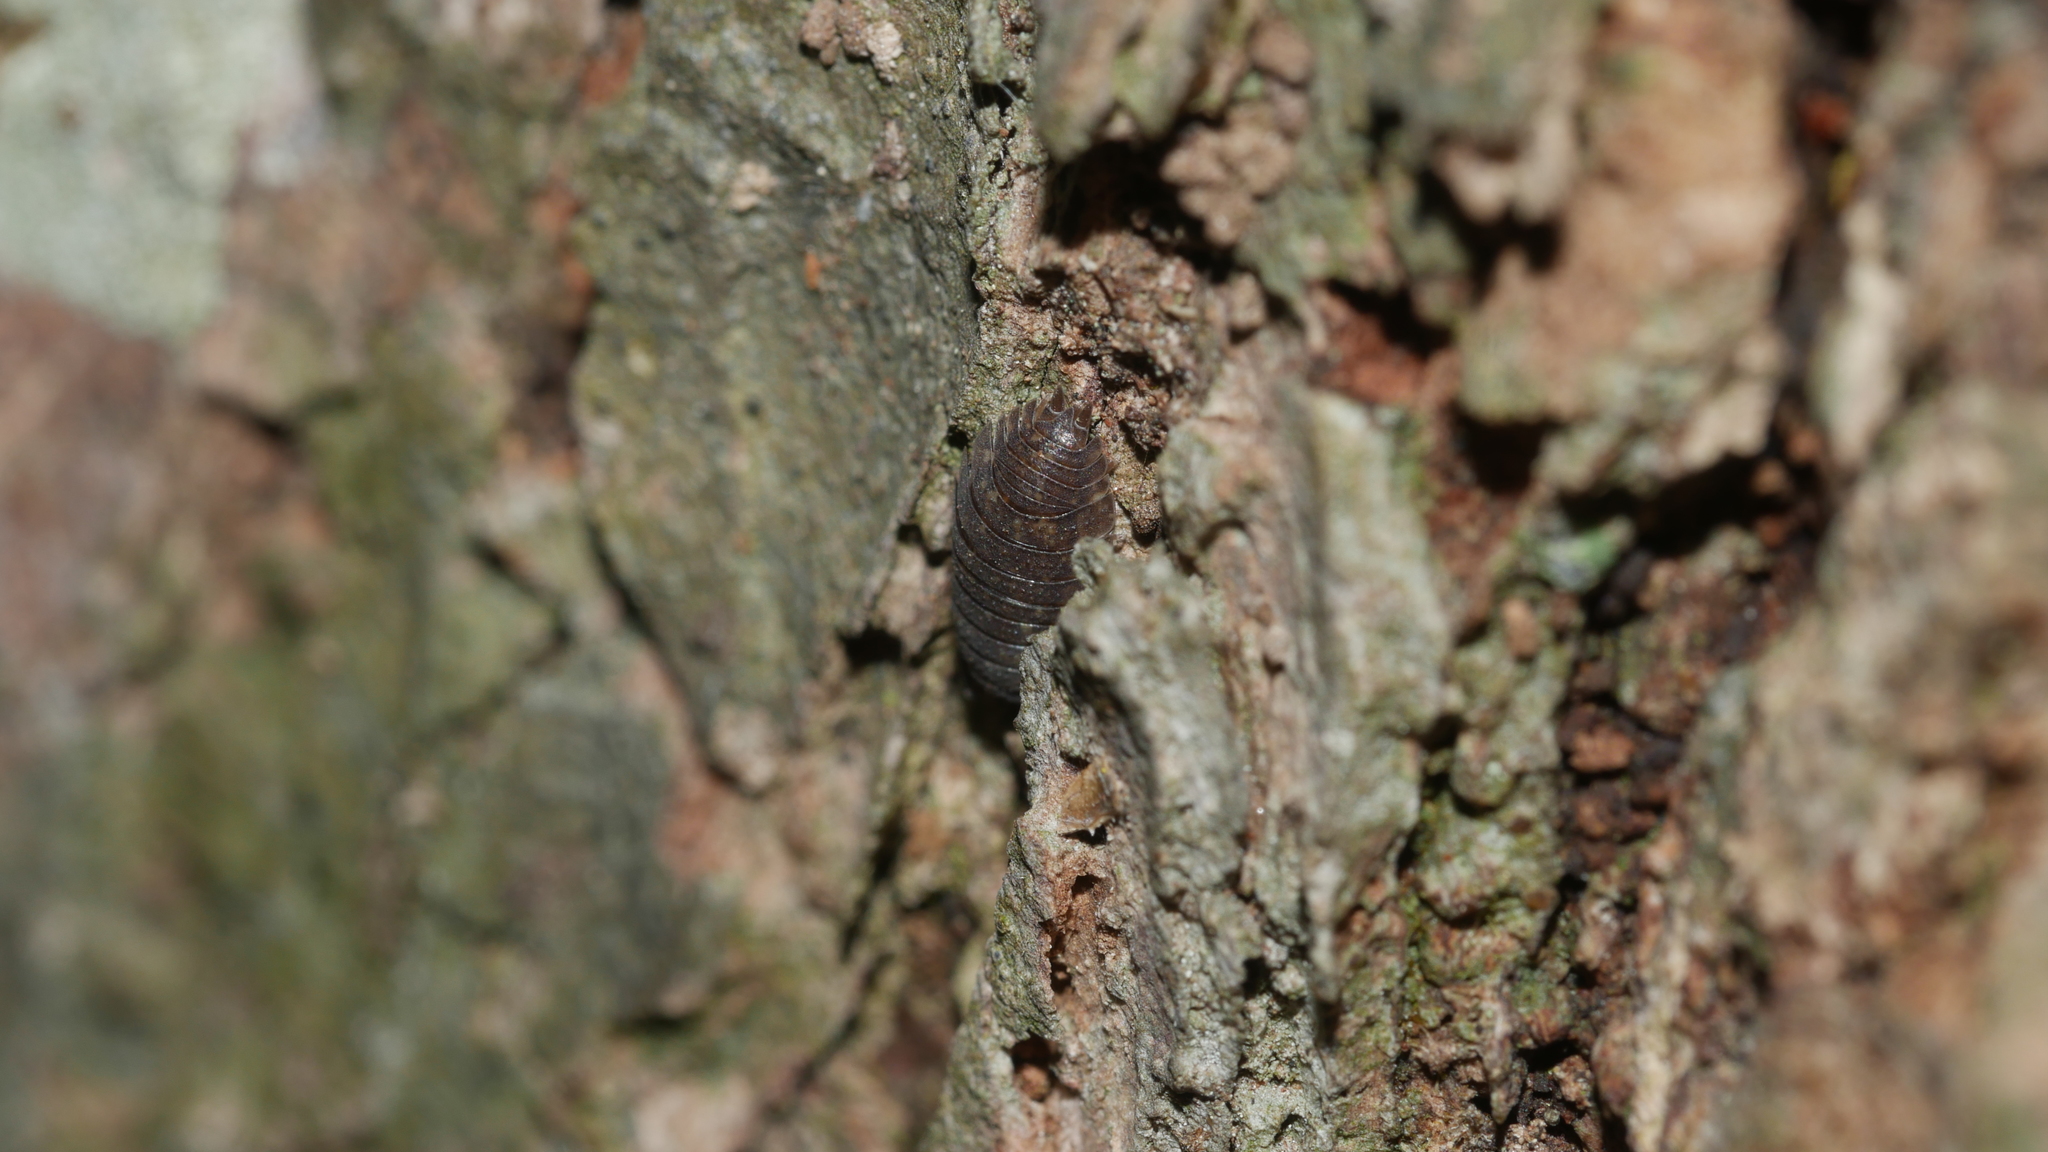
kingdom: Animalia
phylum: Arthropoda
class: Malacostraca
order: Isopoda
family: Porcellionidae
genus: Porcellio
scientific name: Porcellio scaber
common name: Common rough woodlouse
